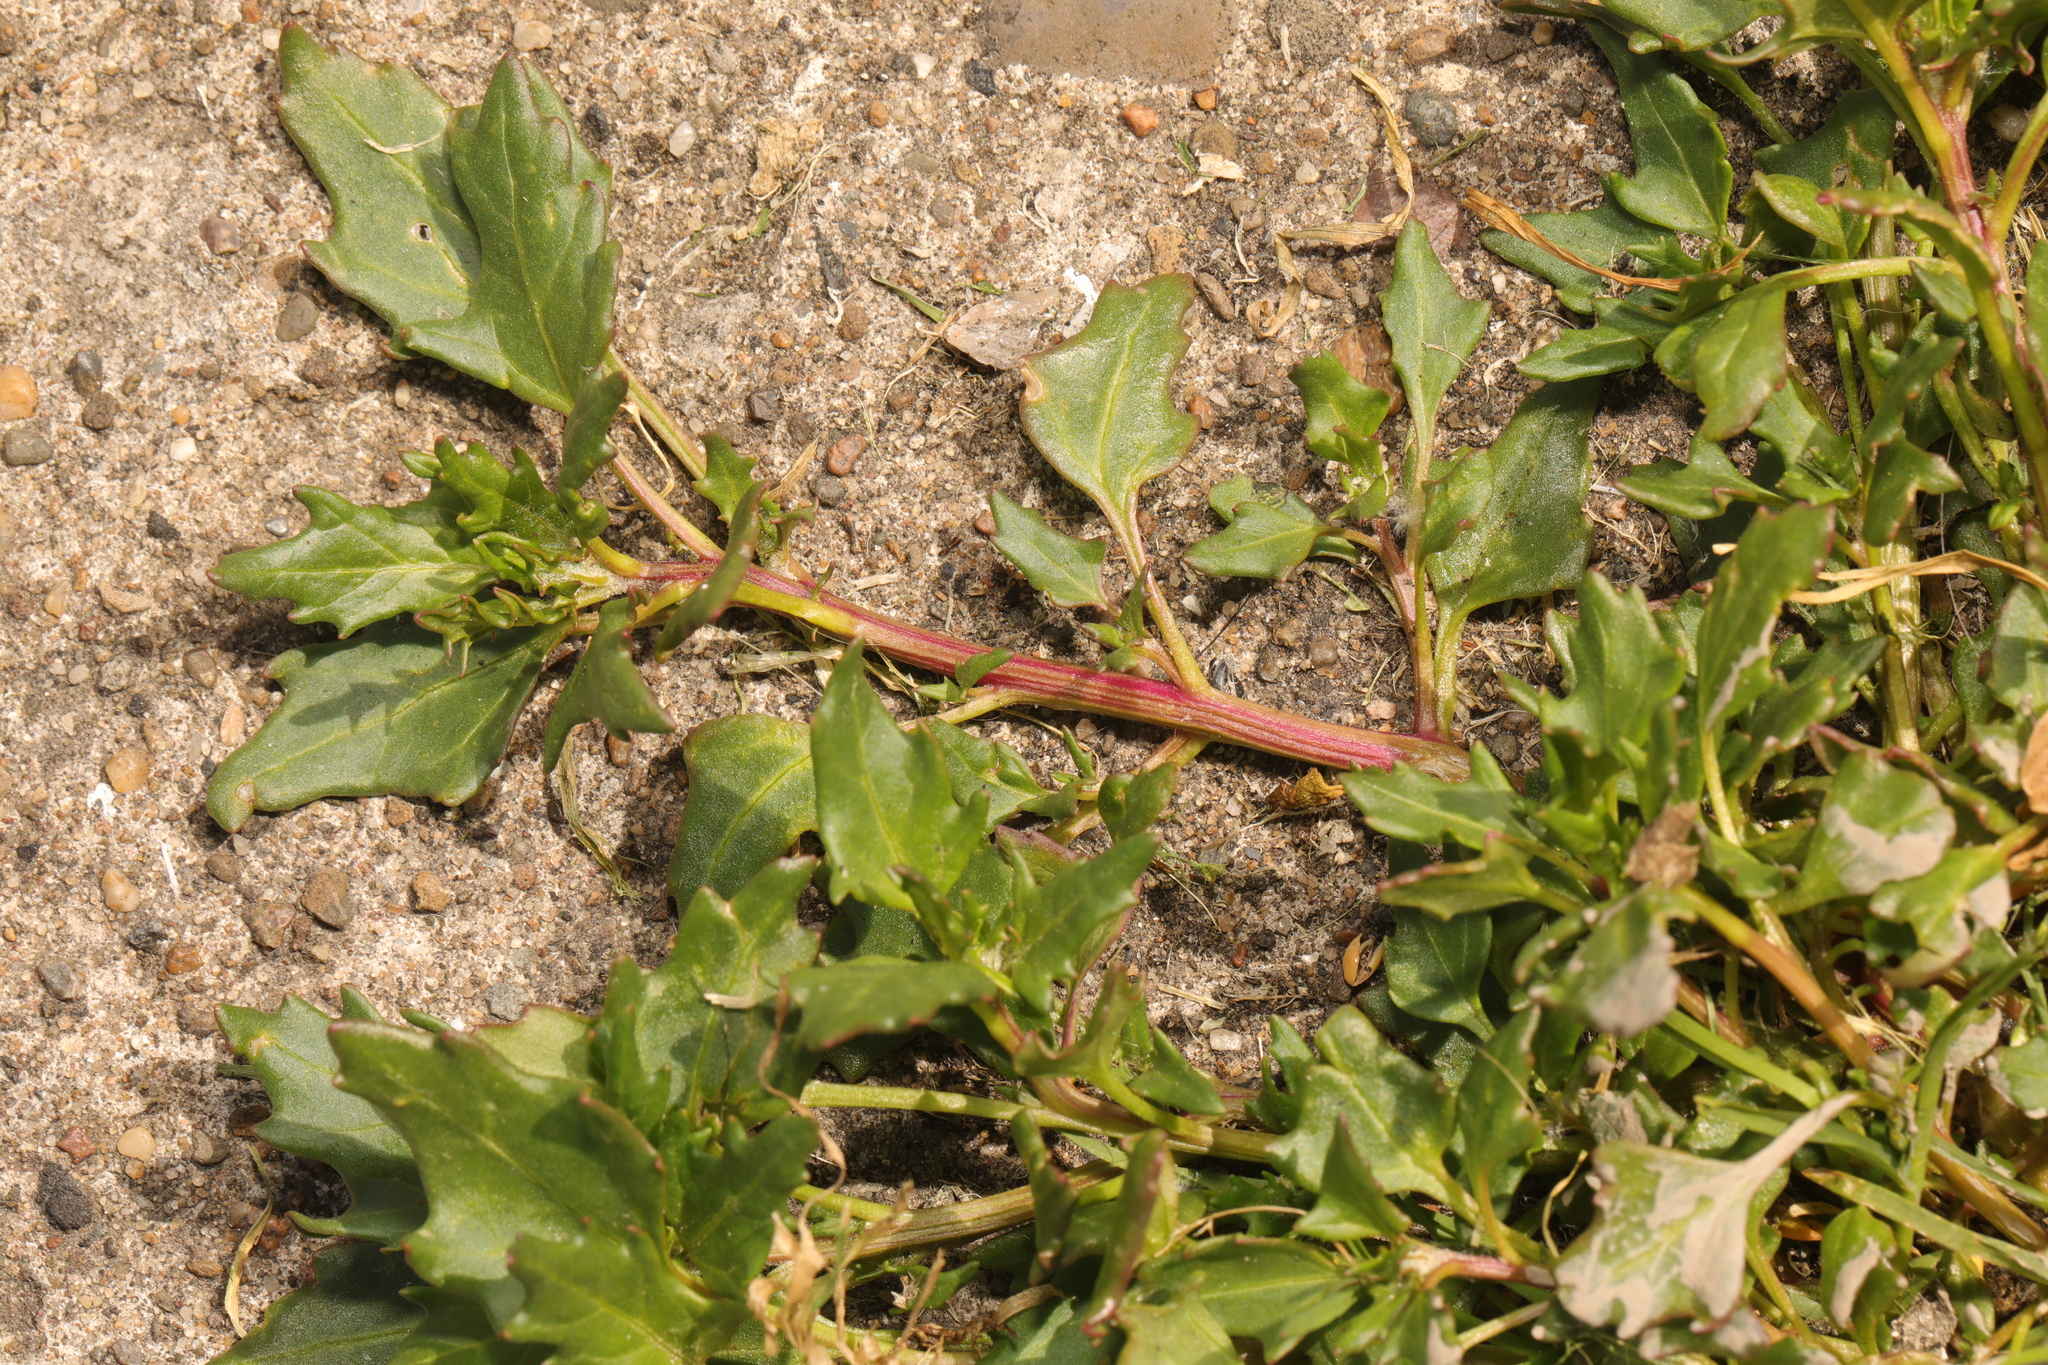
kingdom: Plantae
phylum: Tracheophyta
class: Magnoliopsida
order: Caryophyllales
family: Amaranthaceae
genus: Oxybasis
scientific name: Oxybasis rubra
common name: Red goosefoot
